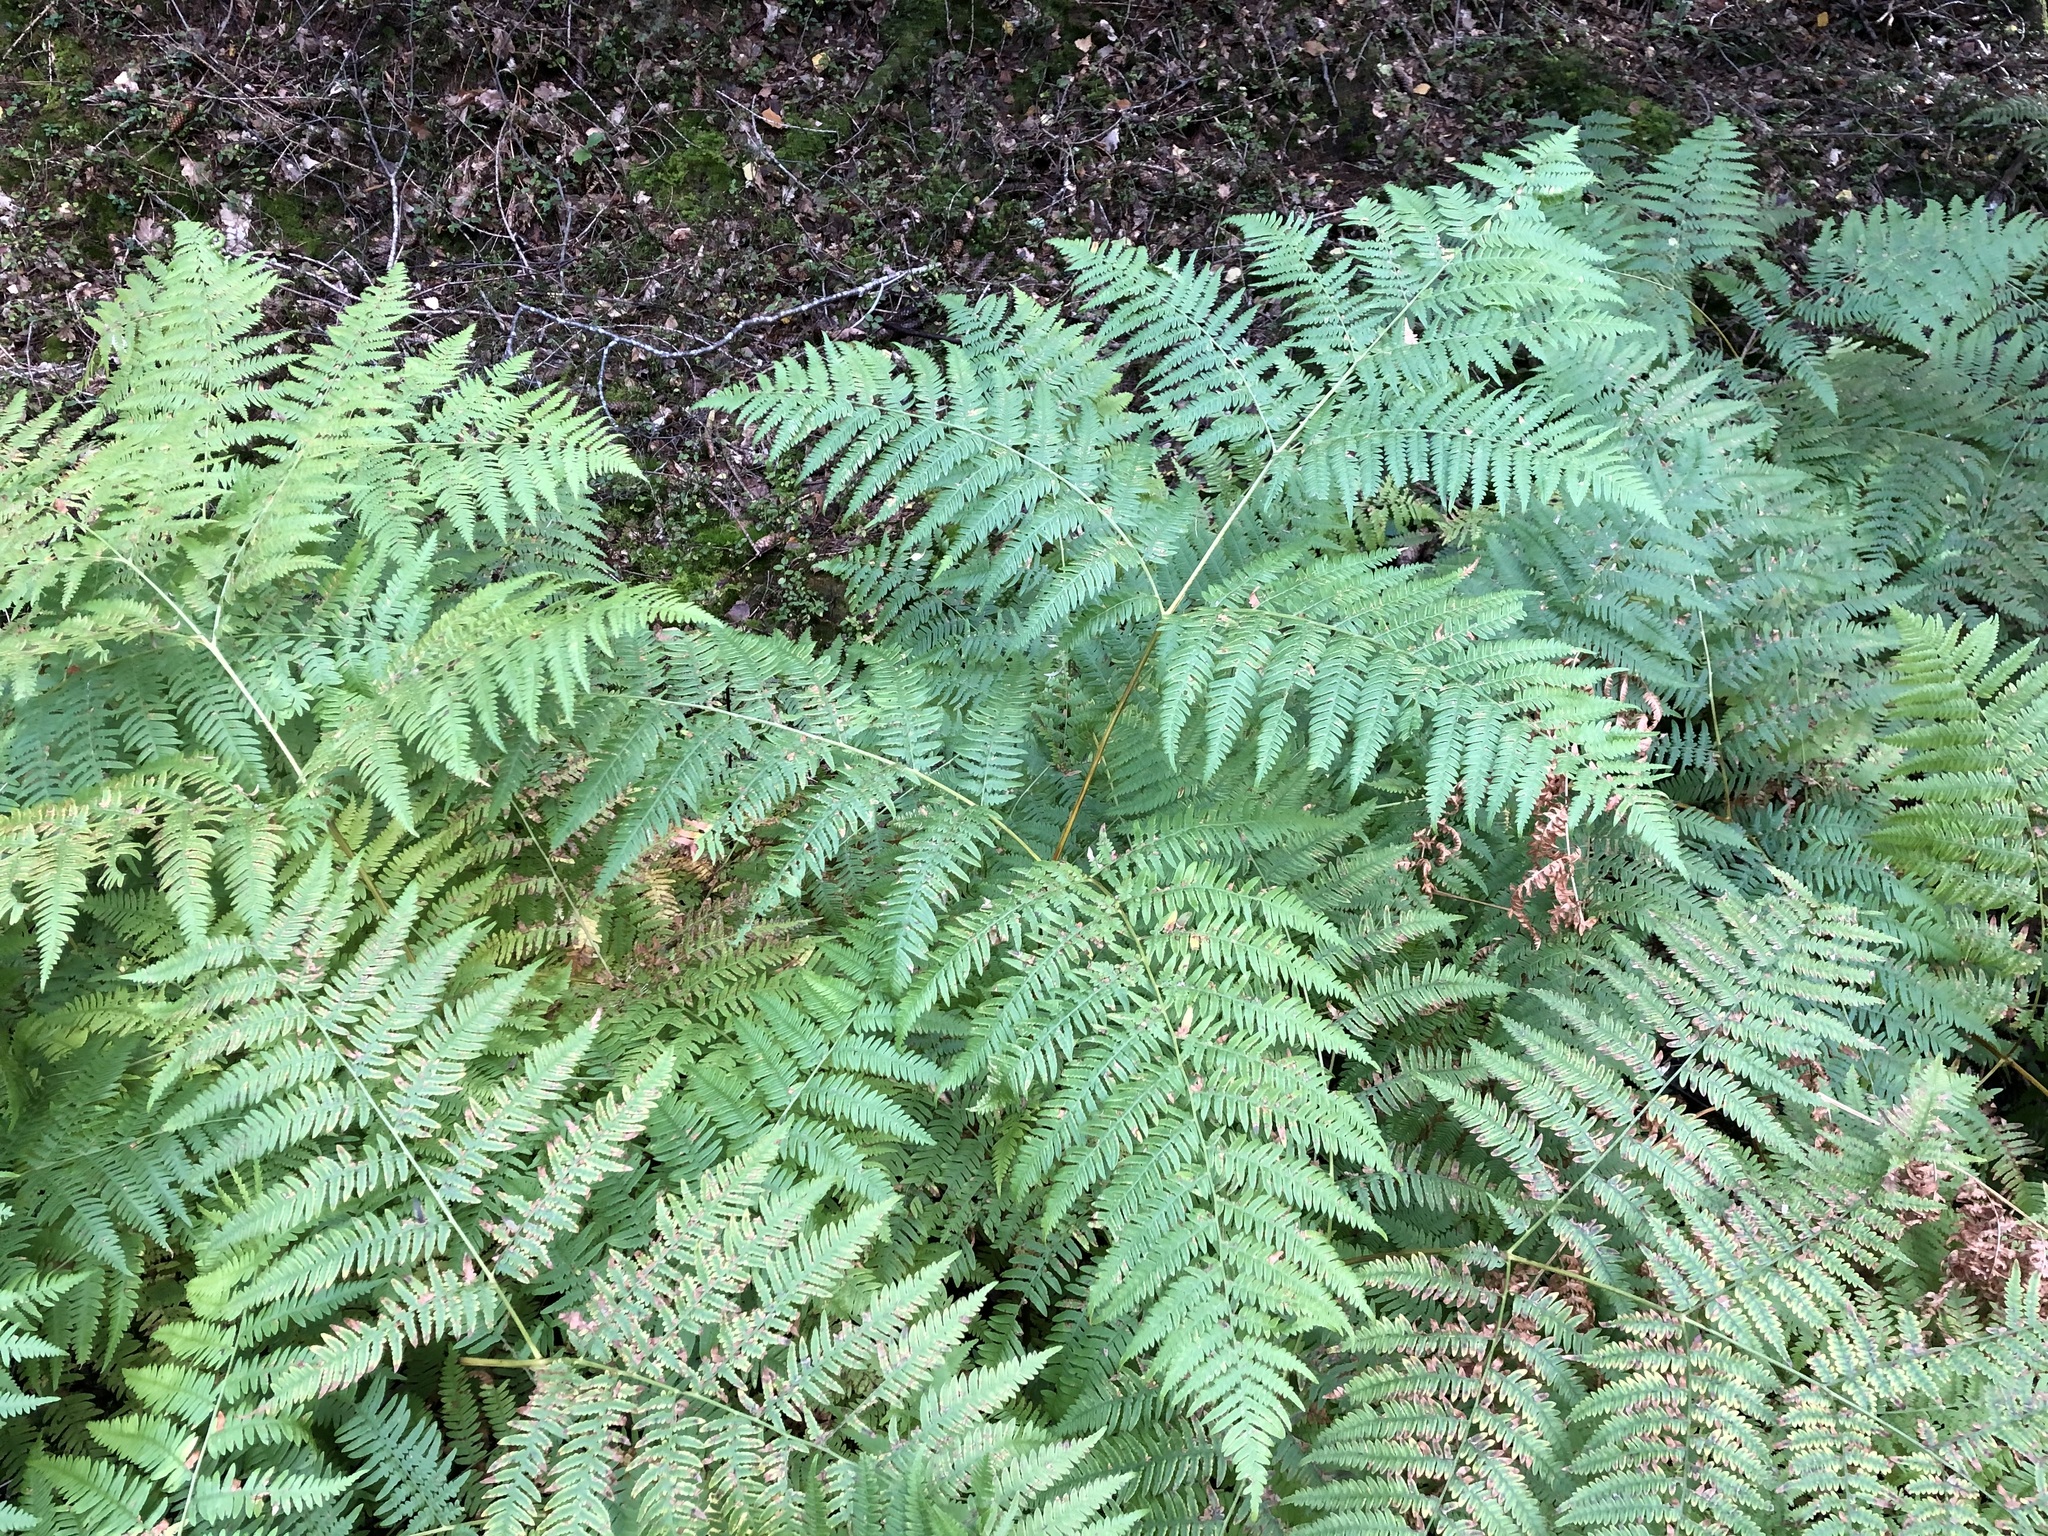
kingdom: Plantae
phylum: Tracheophyta
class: Polypodiopsida
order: Polypodiales
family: Dennstaedtiaceae
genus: Pteridium
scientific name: Pteridium aquilinum
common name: Bracken
